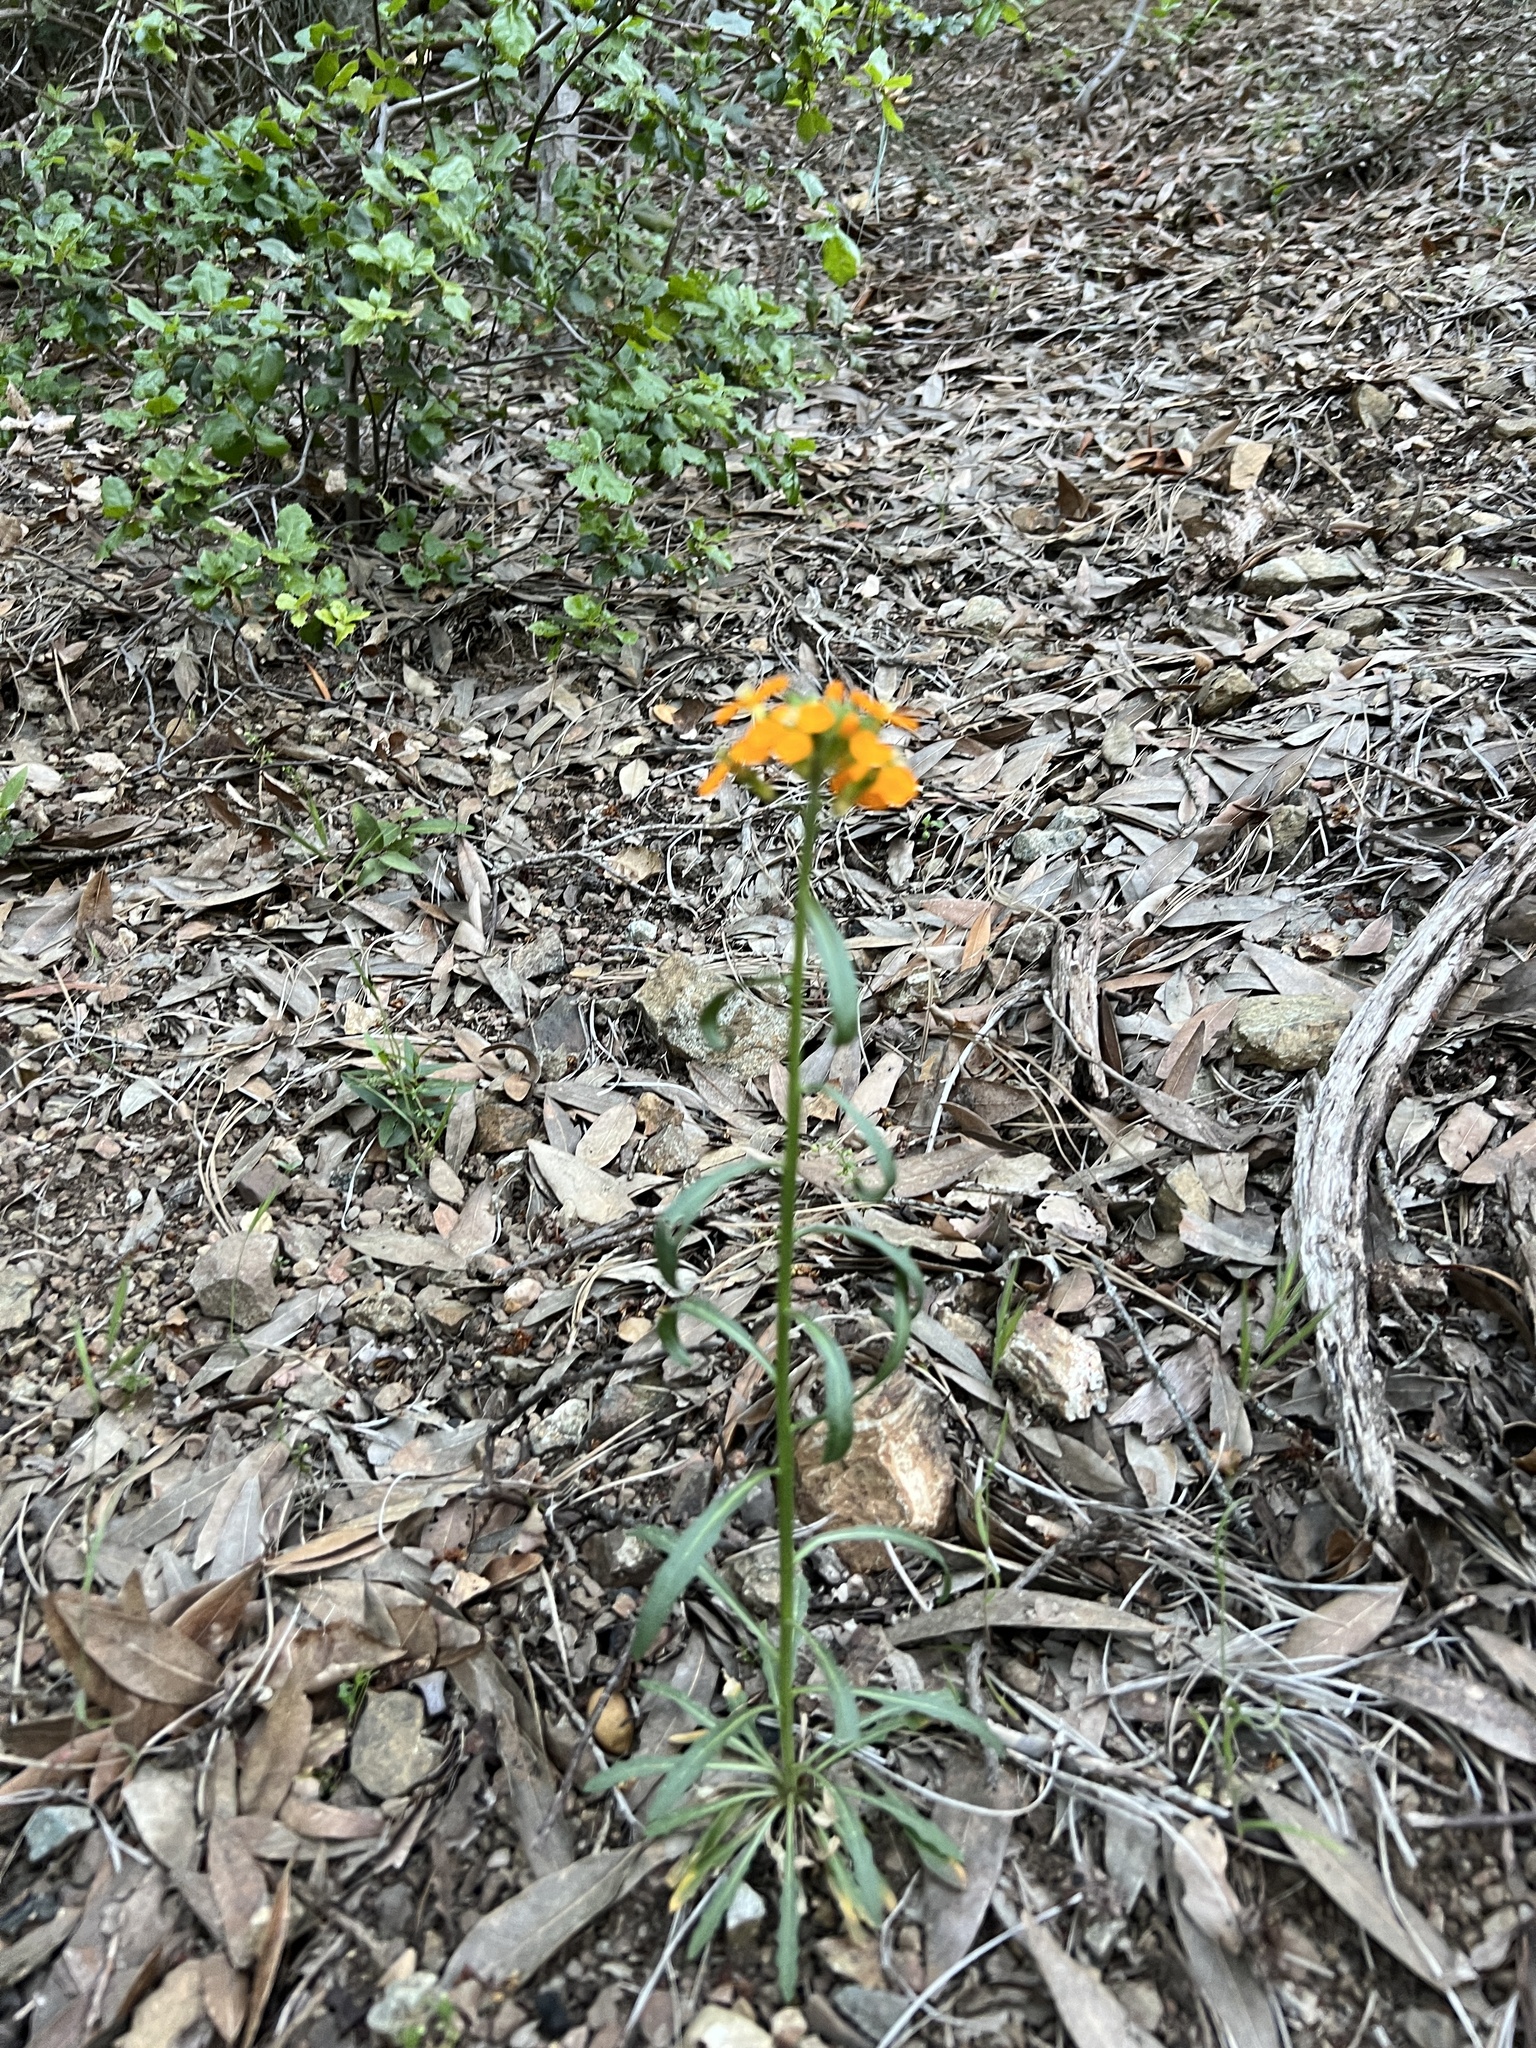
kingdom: Plantae
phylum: Tracheophyta
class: Magnoliopsida
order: Brassicales
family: Brassicaceae
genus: Erysimum
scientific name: Erysimum capitatum
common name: Western wallflower
